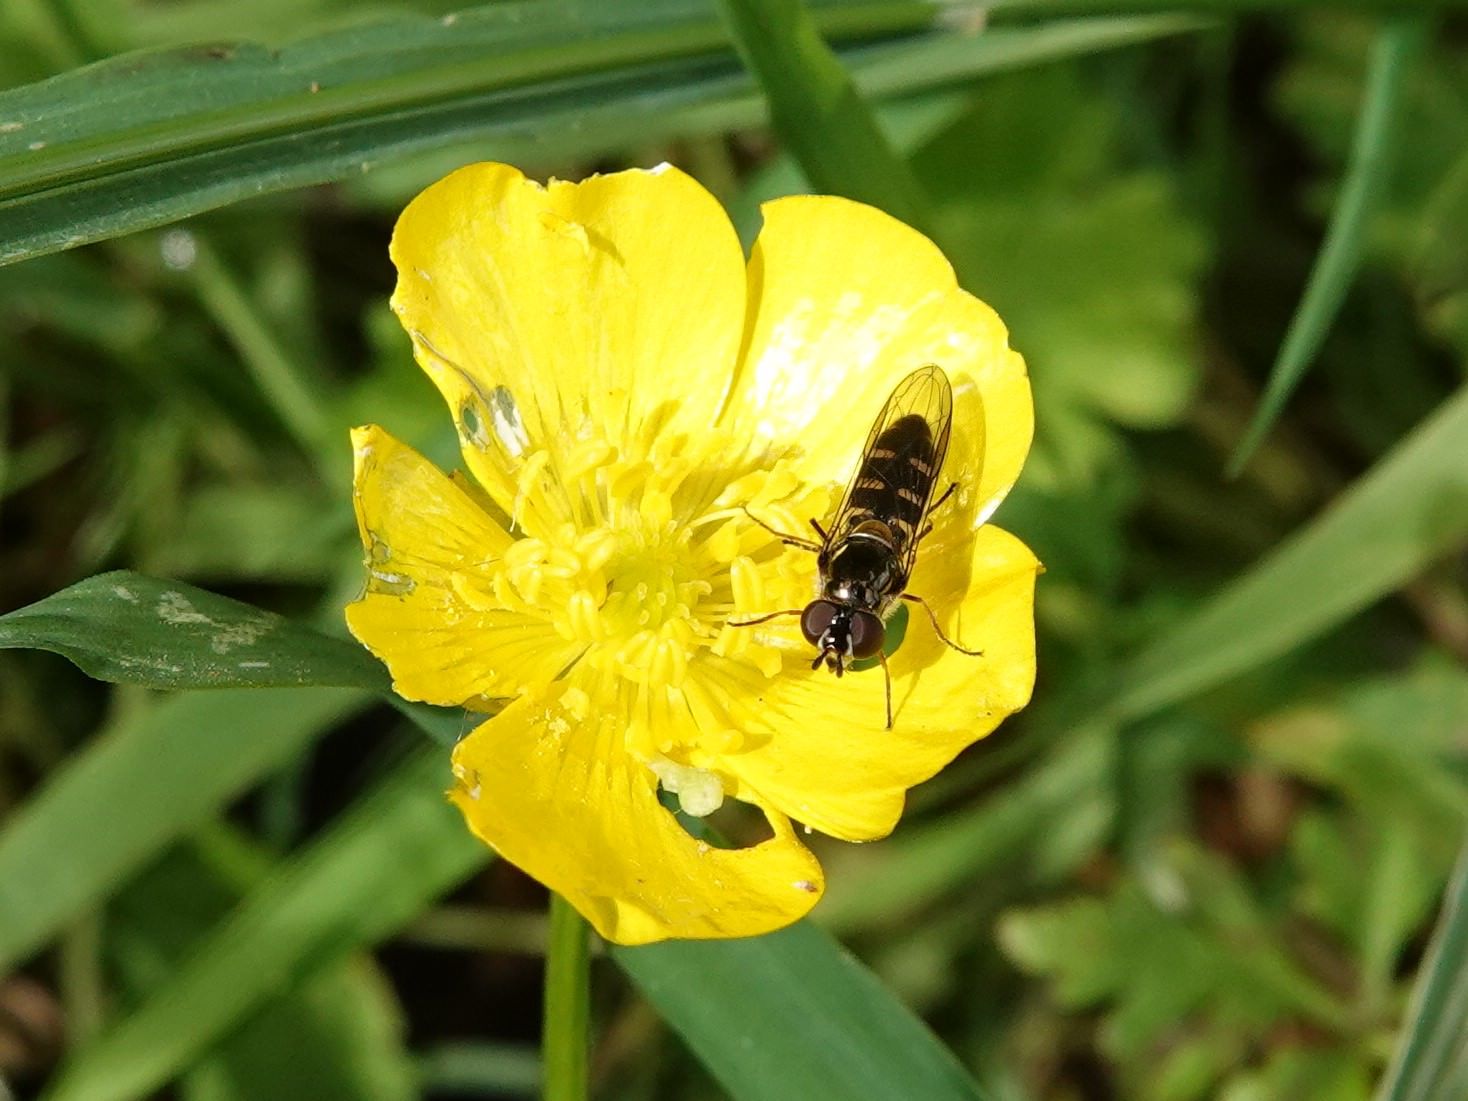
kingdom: Animalia
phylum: Arthropoda
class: Insecta
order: Diptera
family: Syrphidae
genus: Melangyna
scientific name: Melangyna novaezelandiae
